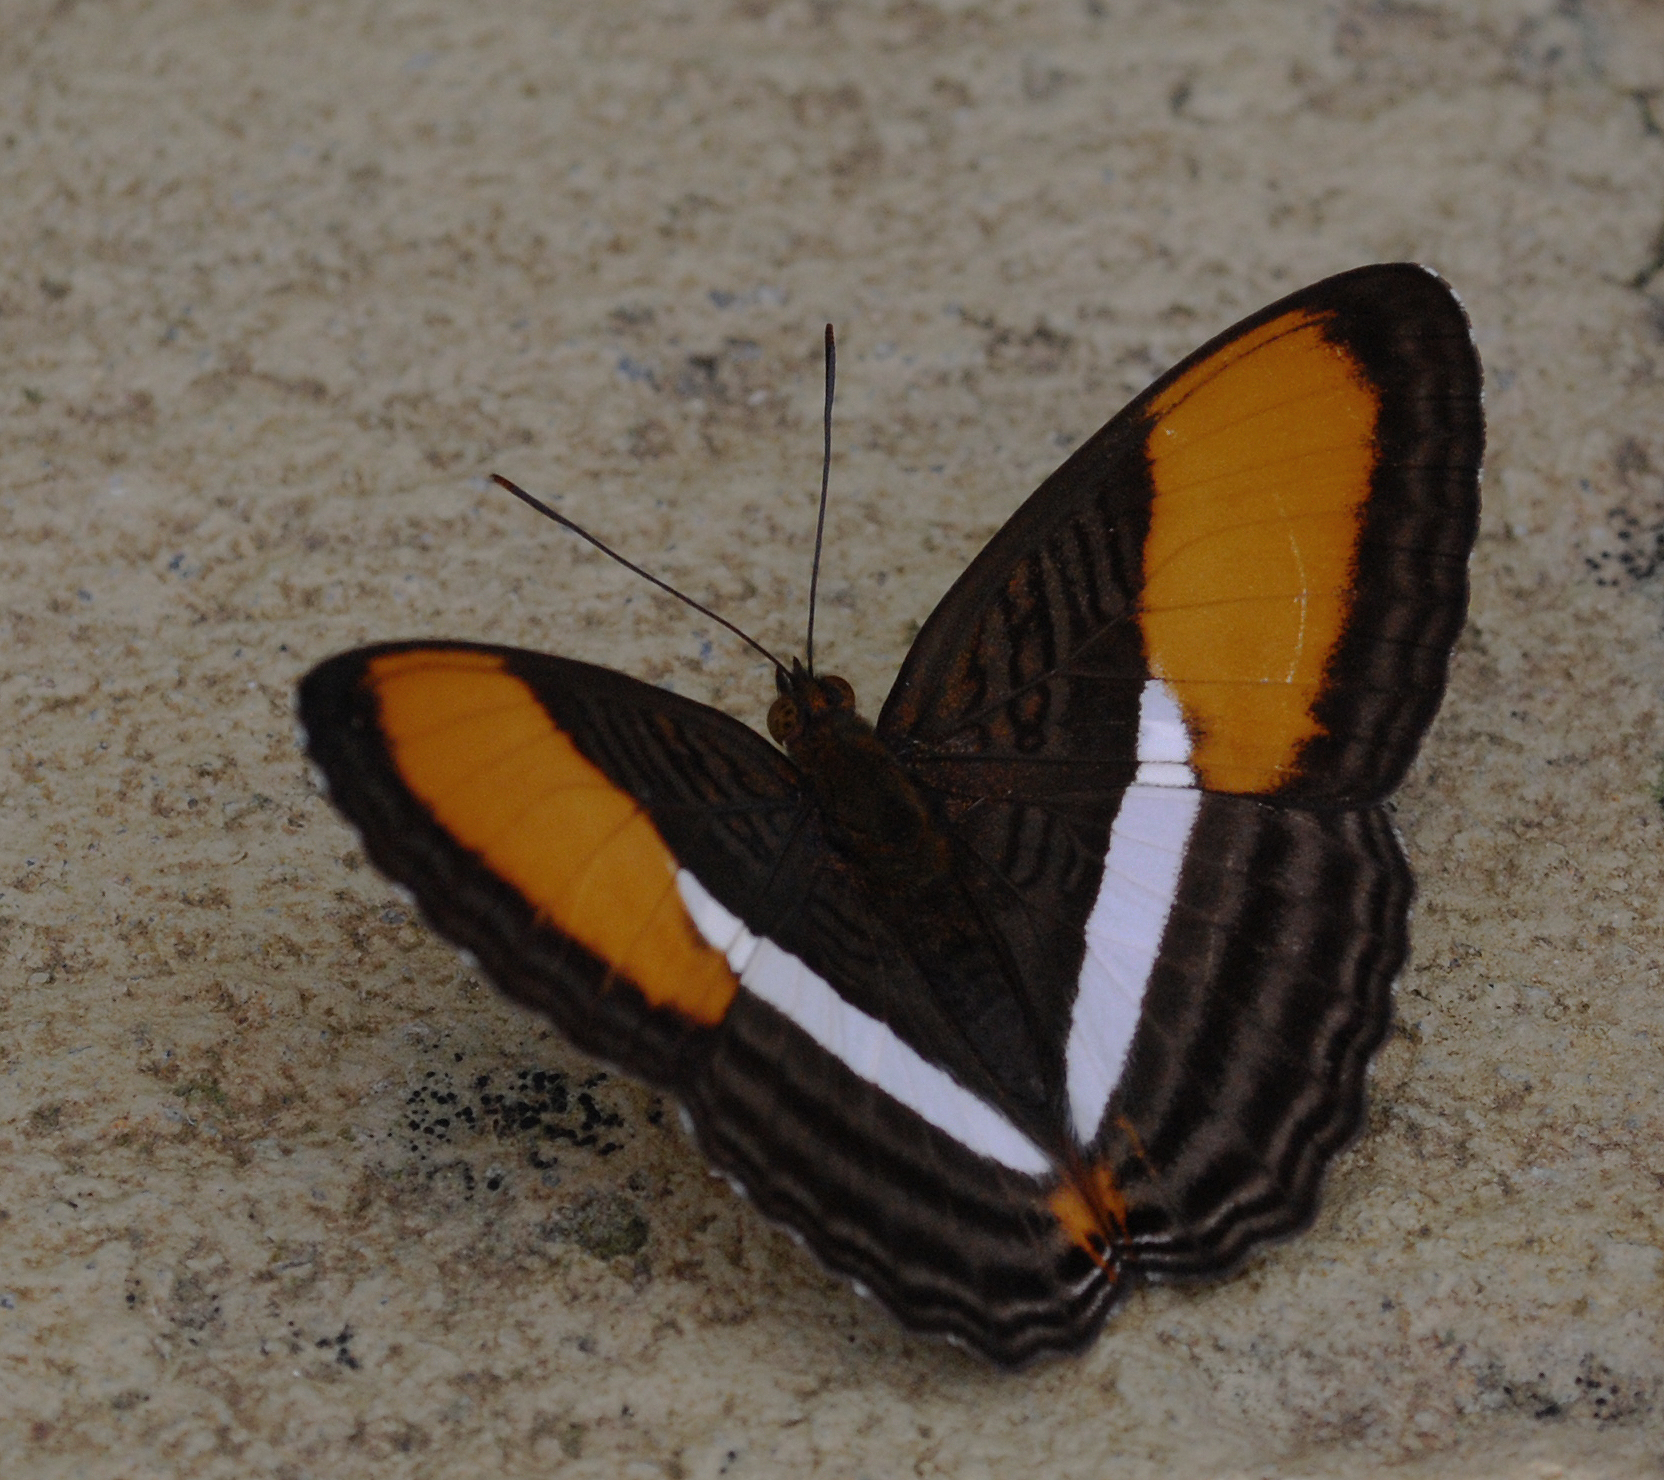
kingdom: Animalia
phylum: Arthropoda
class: Insecta
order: Lepidoptera
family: Nymphalidae
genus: Limenitis
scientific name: Limenitis cytherea
